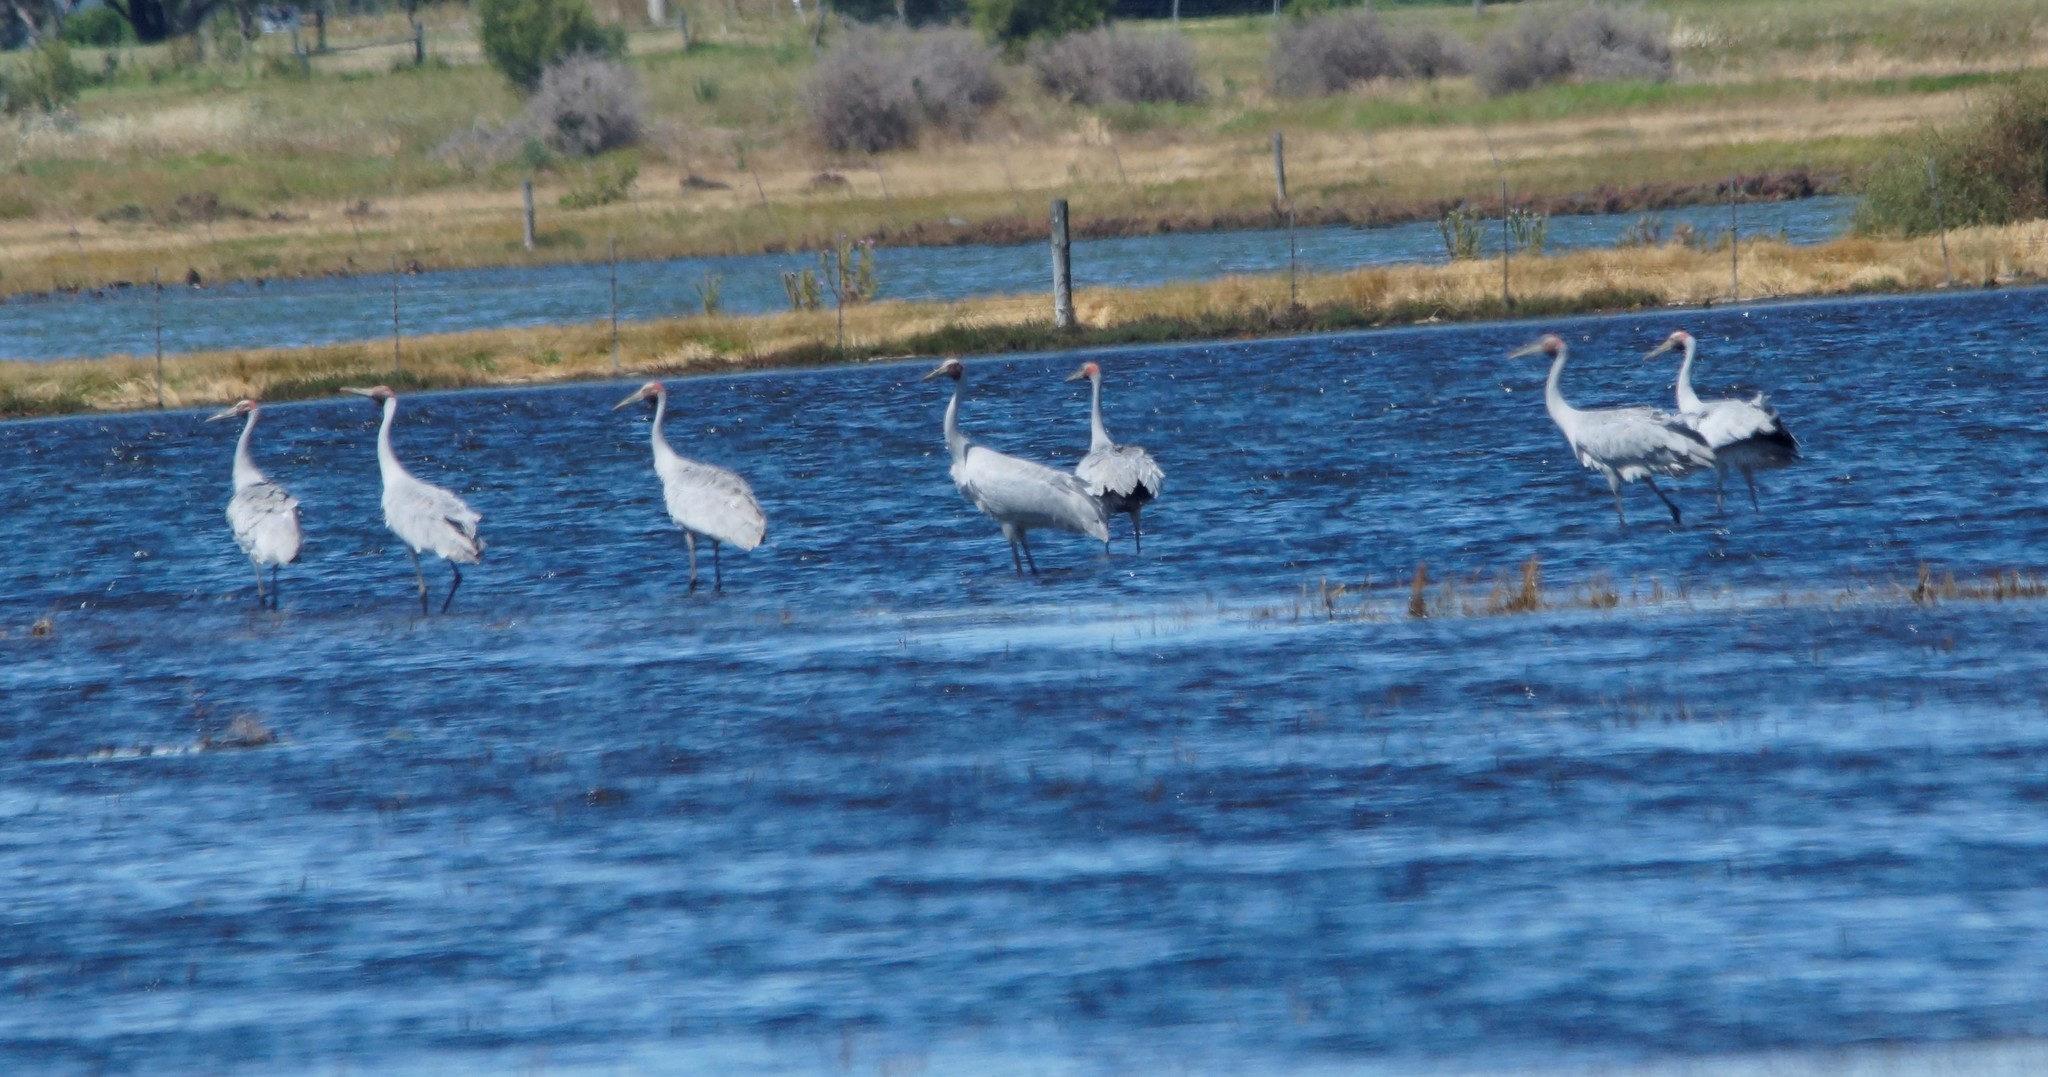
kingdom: Animalia
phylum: Chordata
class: Aves
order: Gruiformes
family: Gruidae
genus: Grus
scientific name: Grus rubicunda
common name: Brolga
